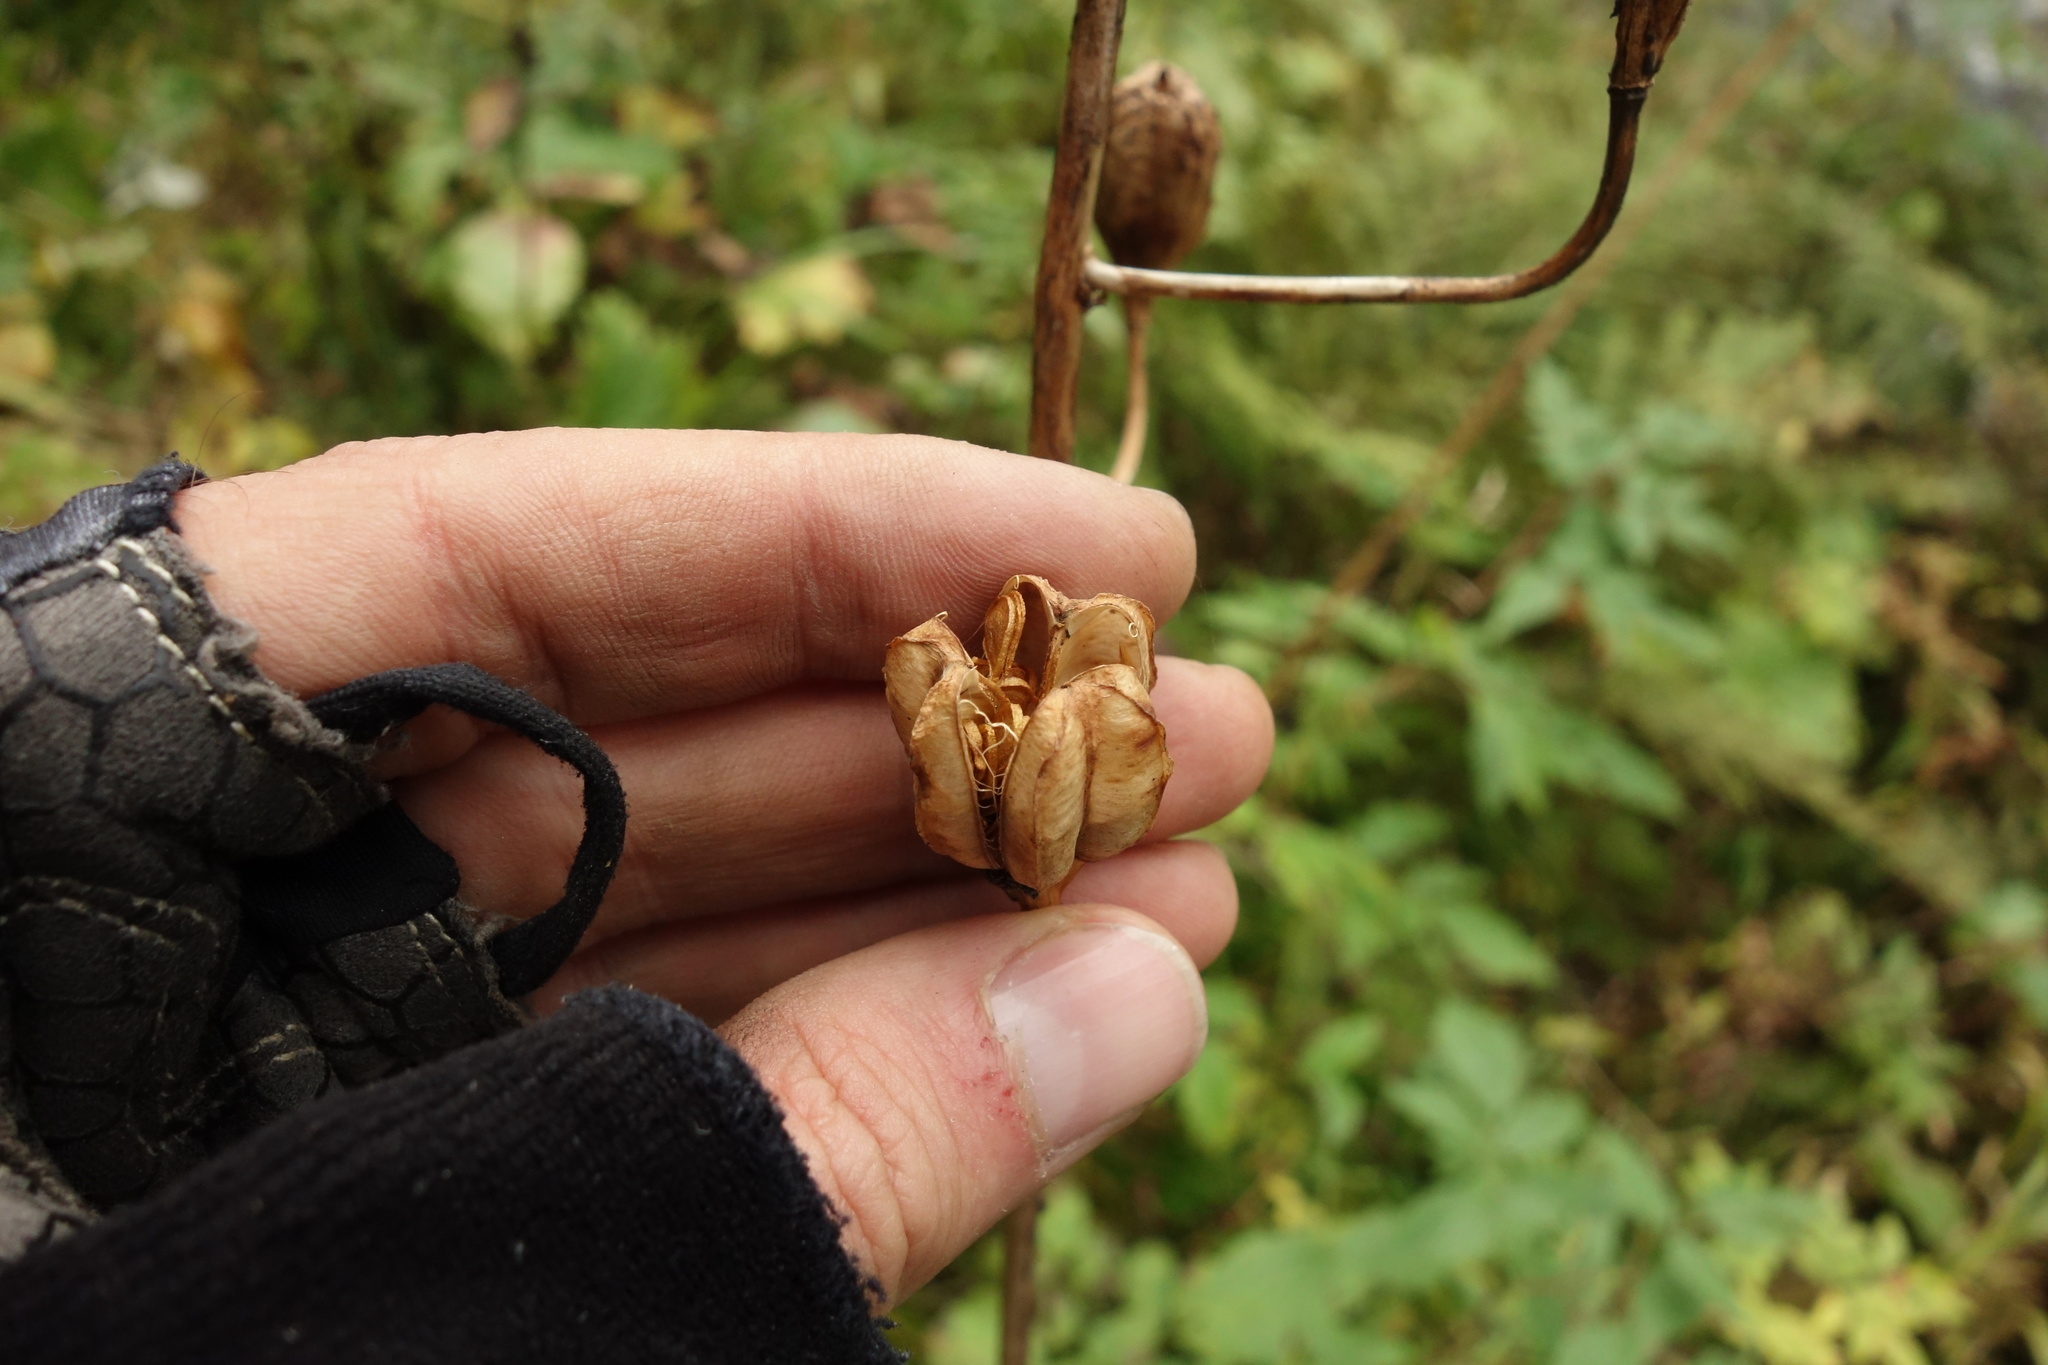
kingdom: Plantae
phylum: Tracheophyta
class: Liliopsida
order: Liliales
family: Liliaceae
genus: Lilium
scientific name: Lilium martagon
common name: Martagon lily
